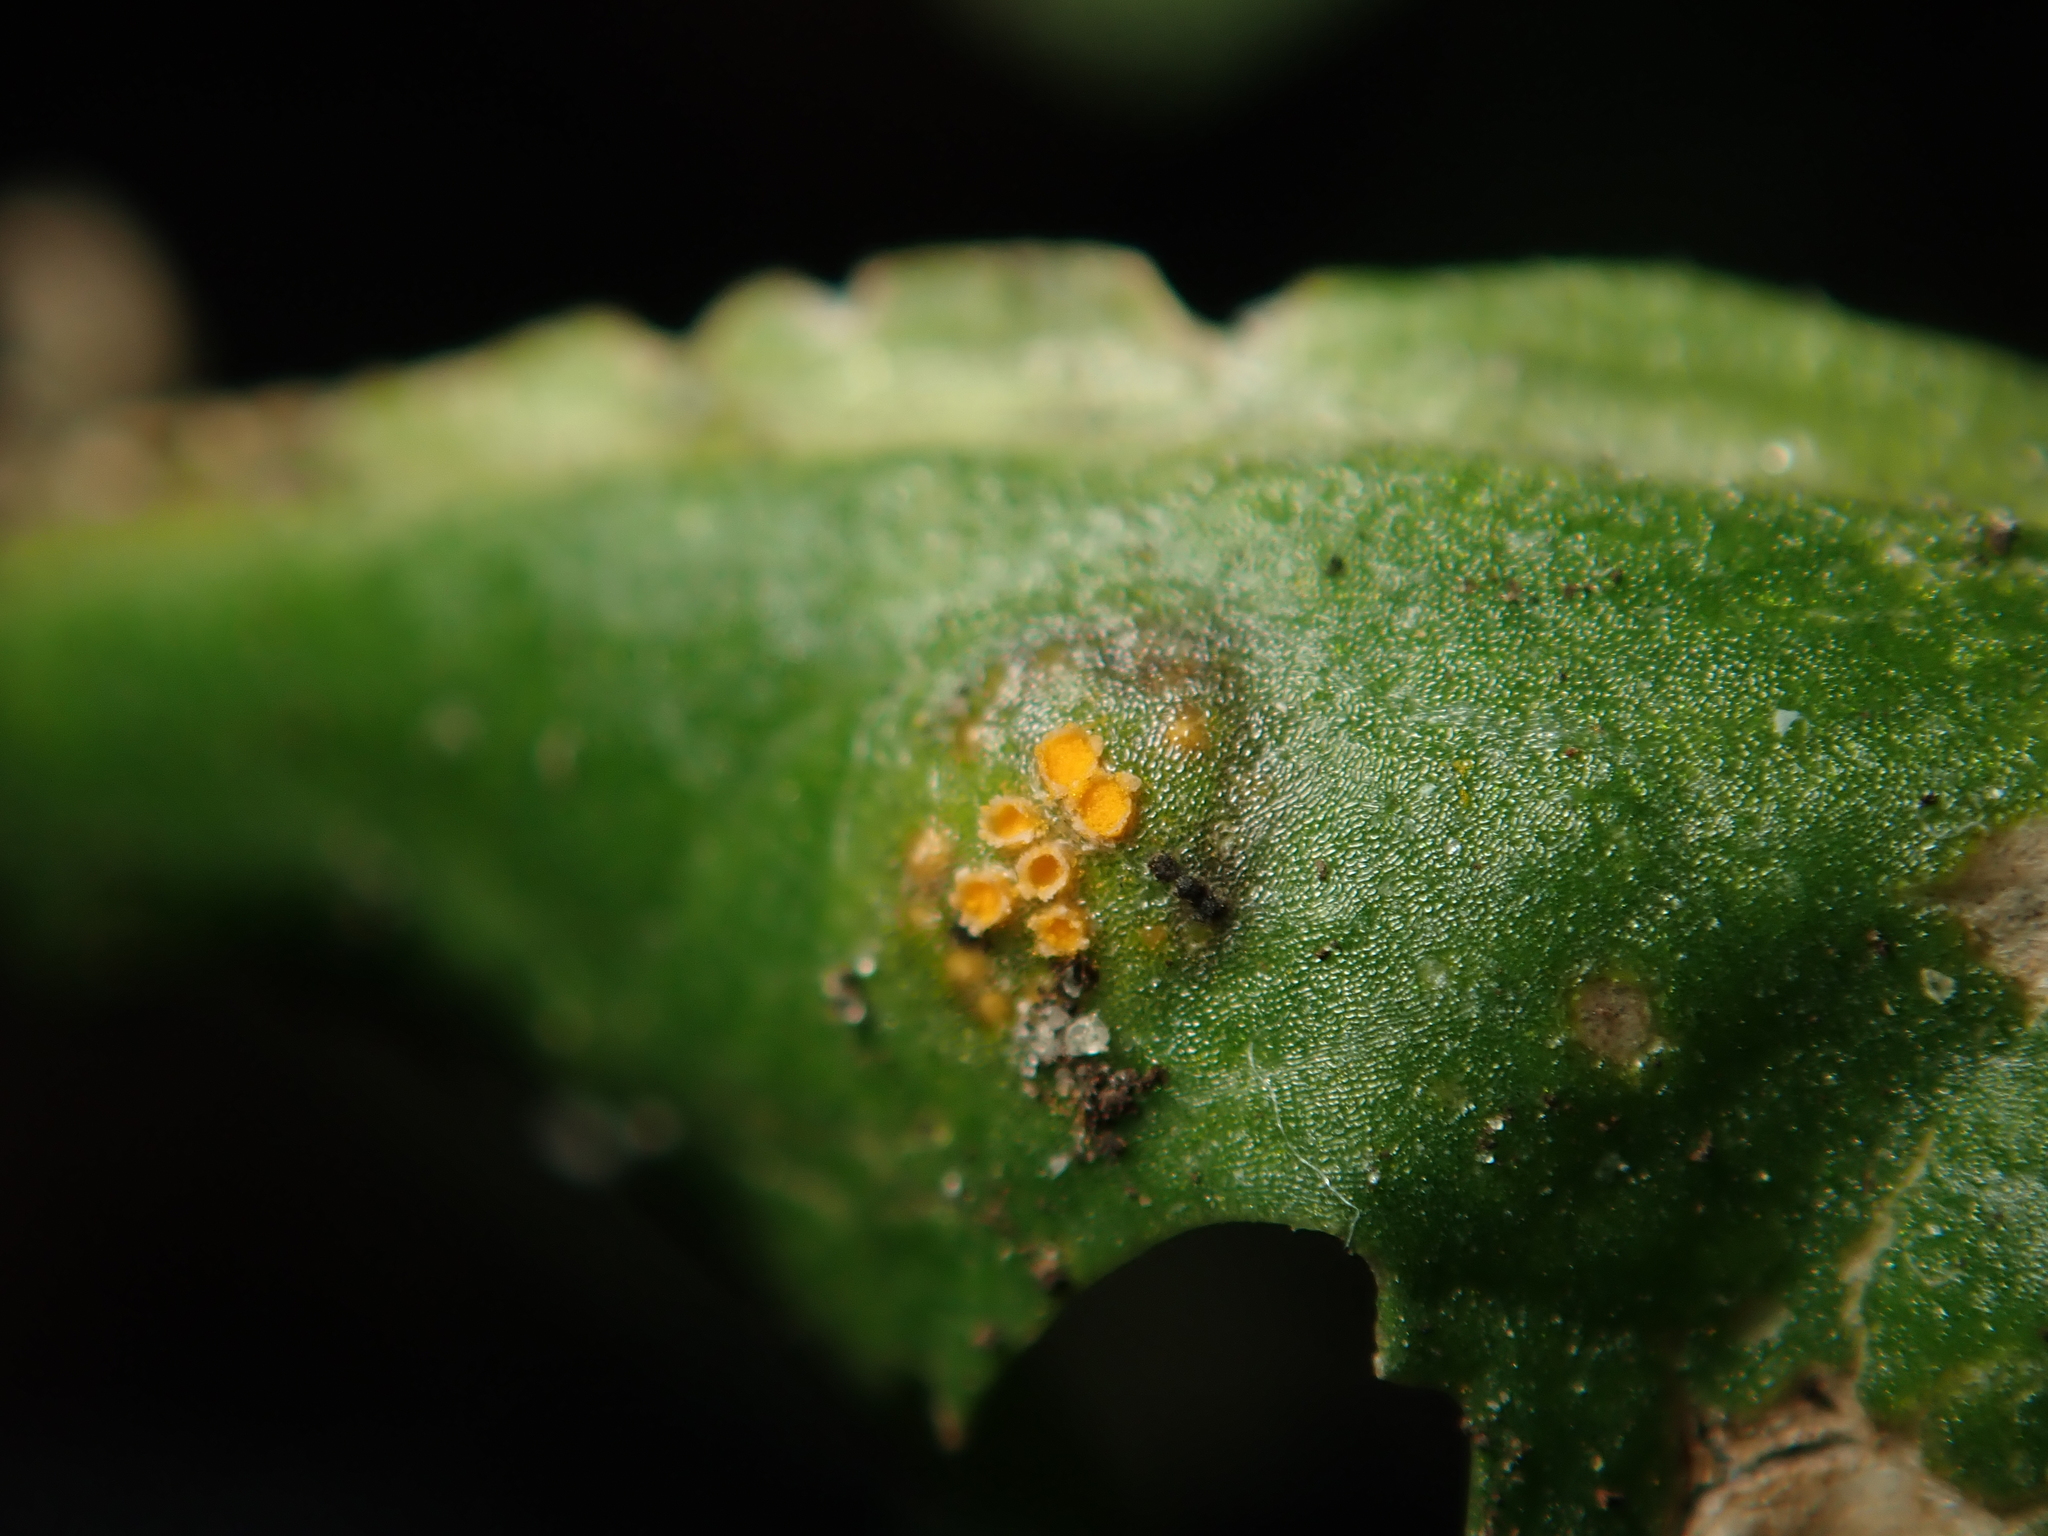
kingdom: Fungi
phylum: Basidiomycota
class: Pucciniomycetes
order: Pucciniales
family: Pucciniaceae
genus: Puccinia
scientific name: Puccinia lagenophorae
